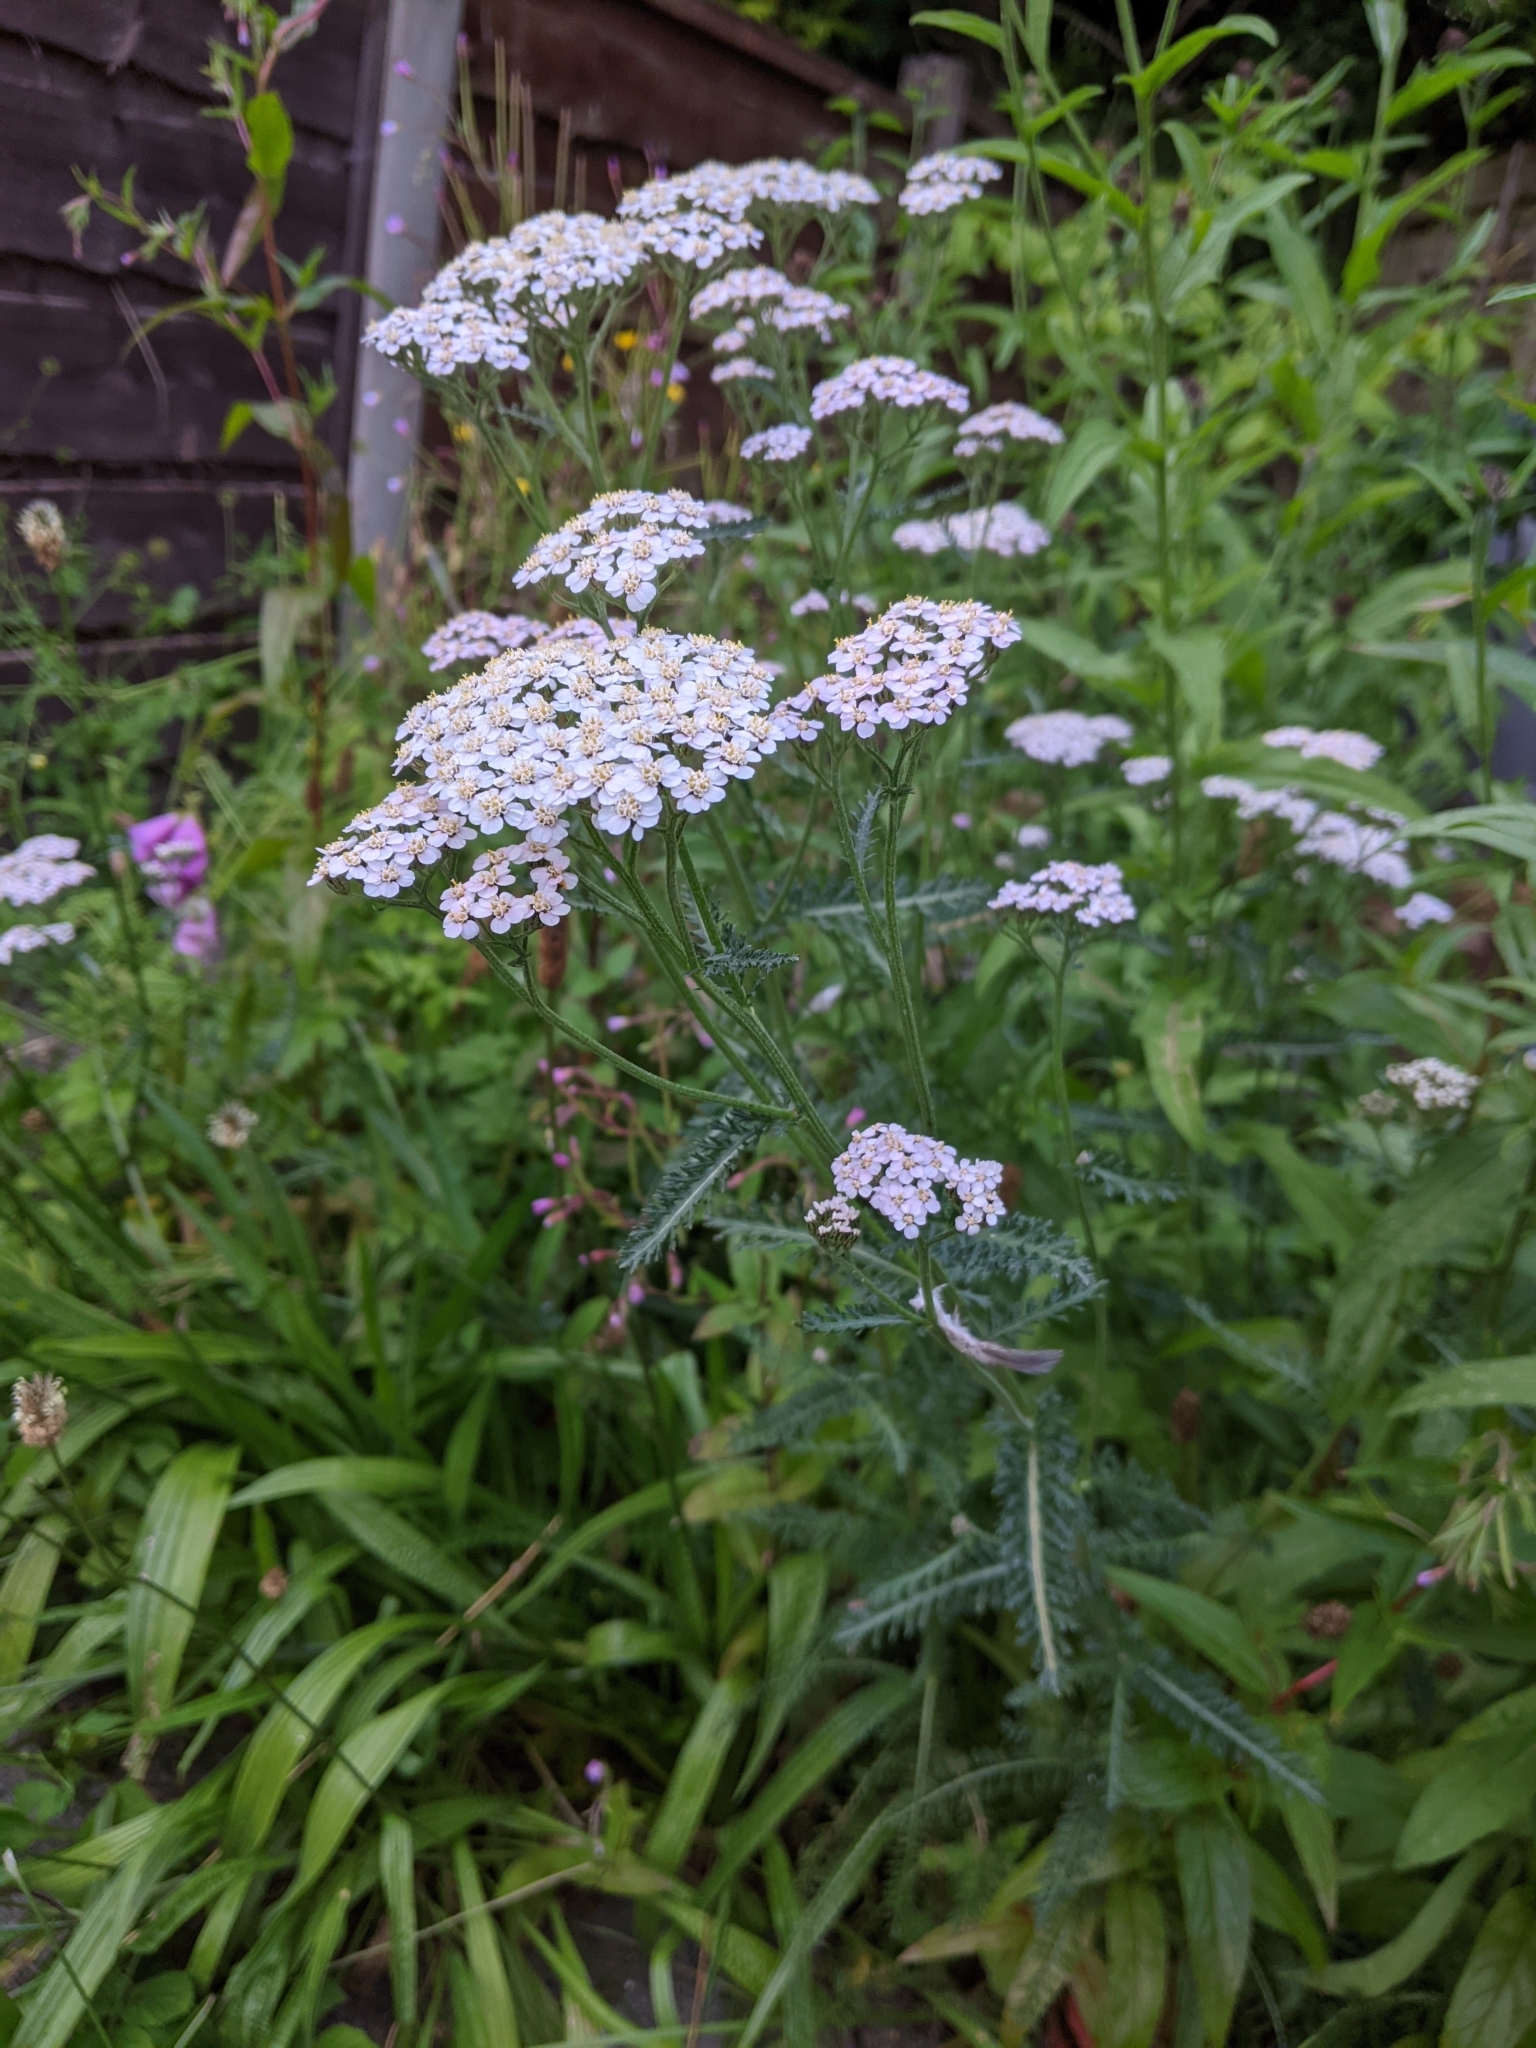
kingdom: Plantae
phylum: Tracheophyta
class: Magnoliopsida
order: Asterales
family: Asteraceae
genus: Achillea
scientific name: Achillea millefolium
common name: Yarrow
